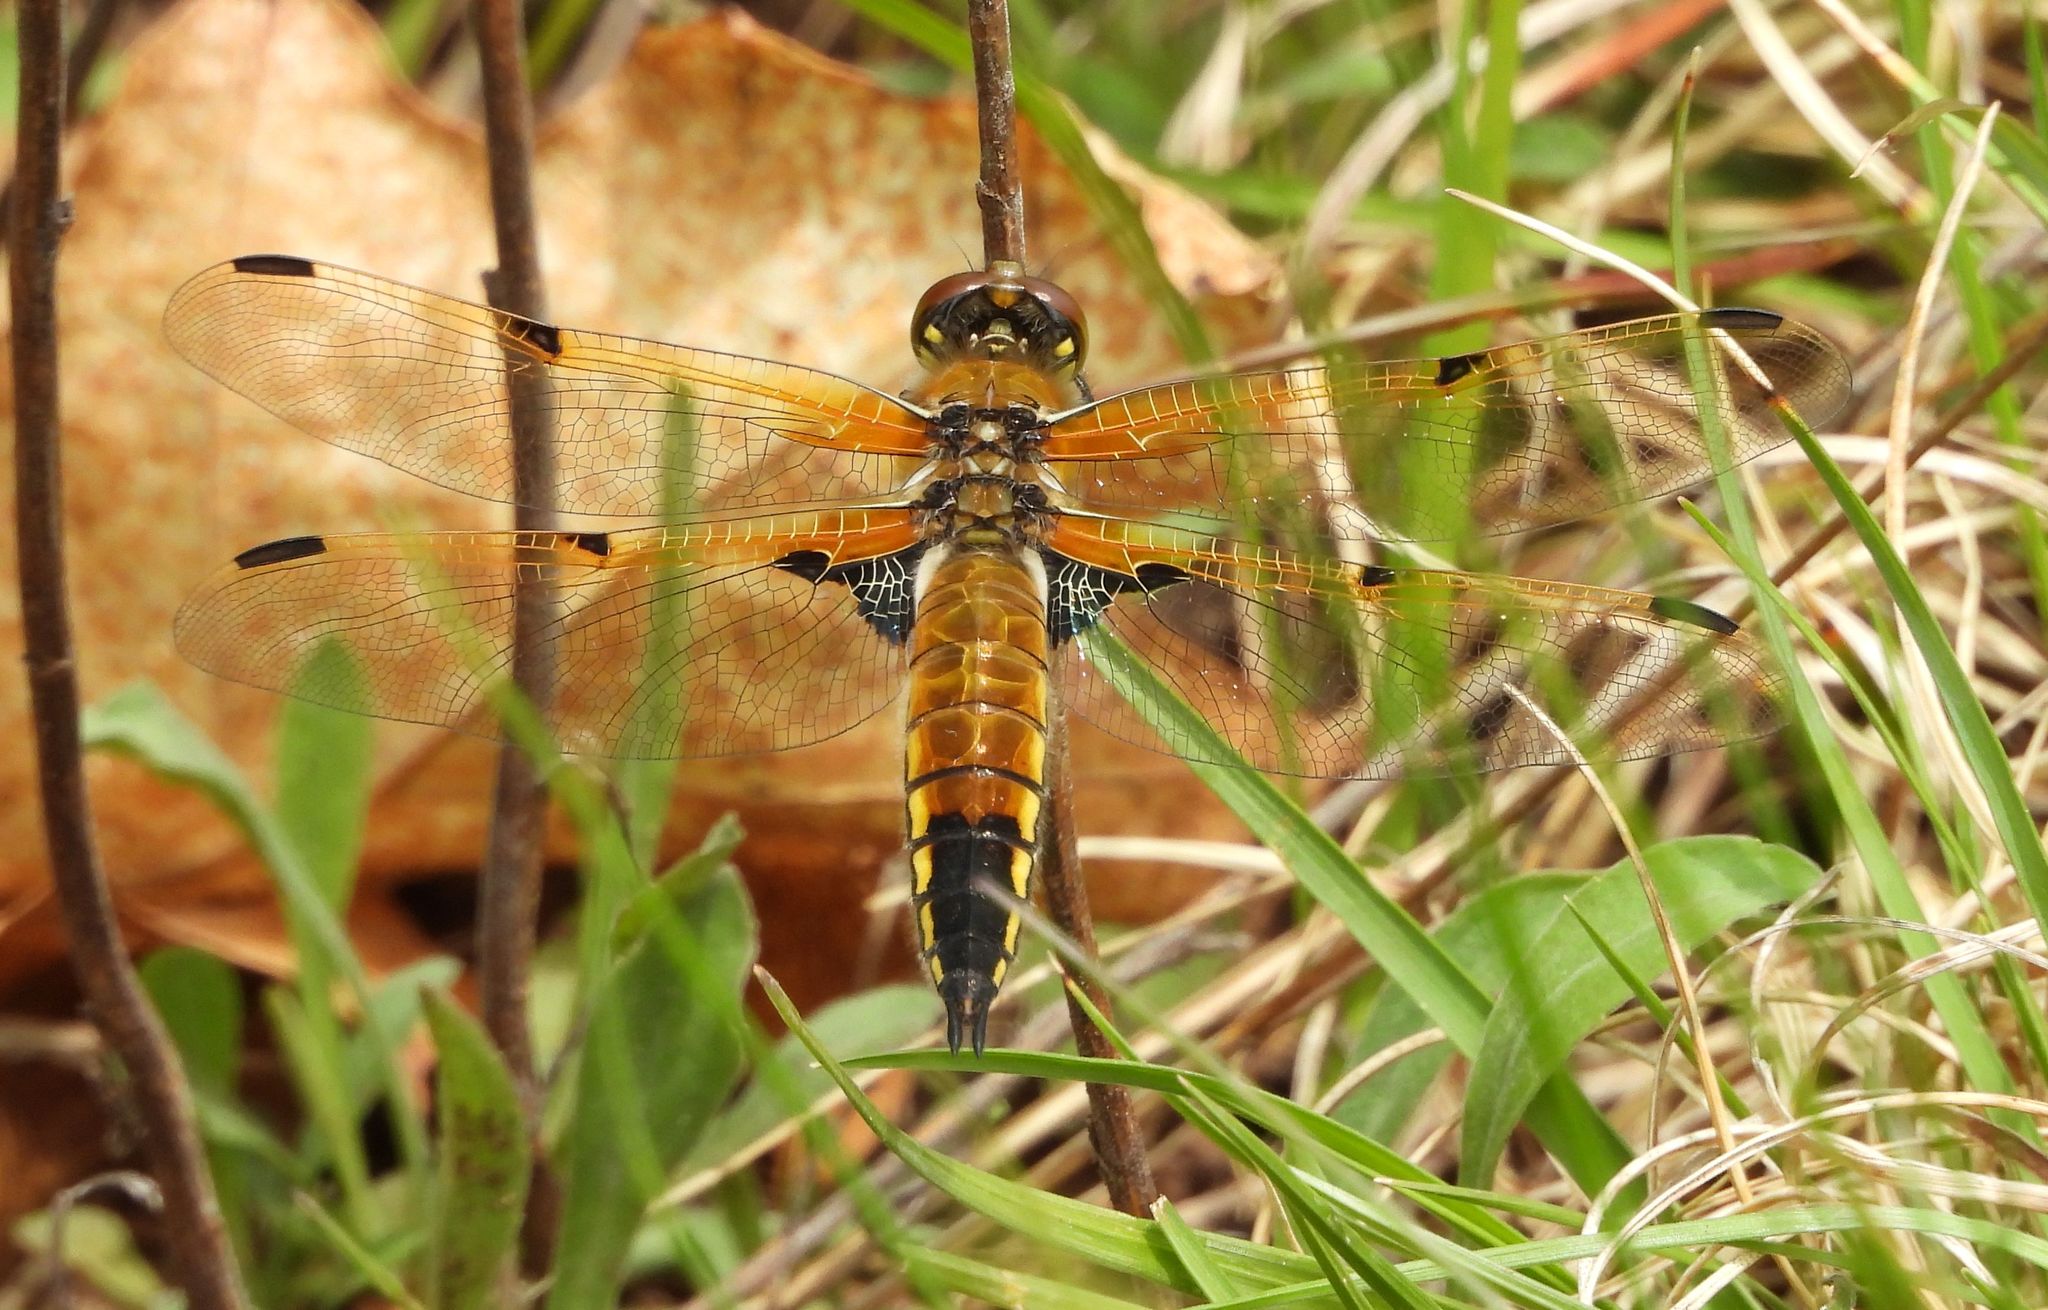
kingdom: Animalia
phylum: Arthropoda
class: Insecta
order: Odonata
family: Libellulidae
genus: Libellula
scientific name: Libellula quadrimaculata
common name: Four-spotted chaser
